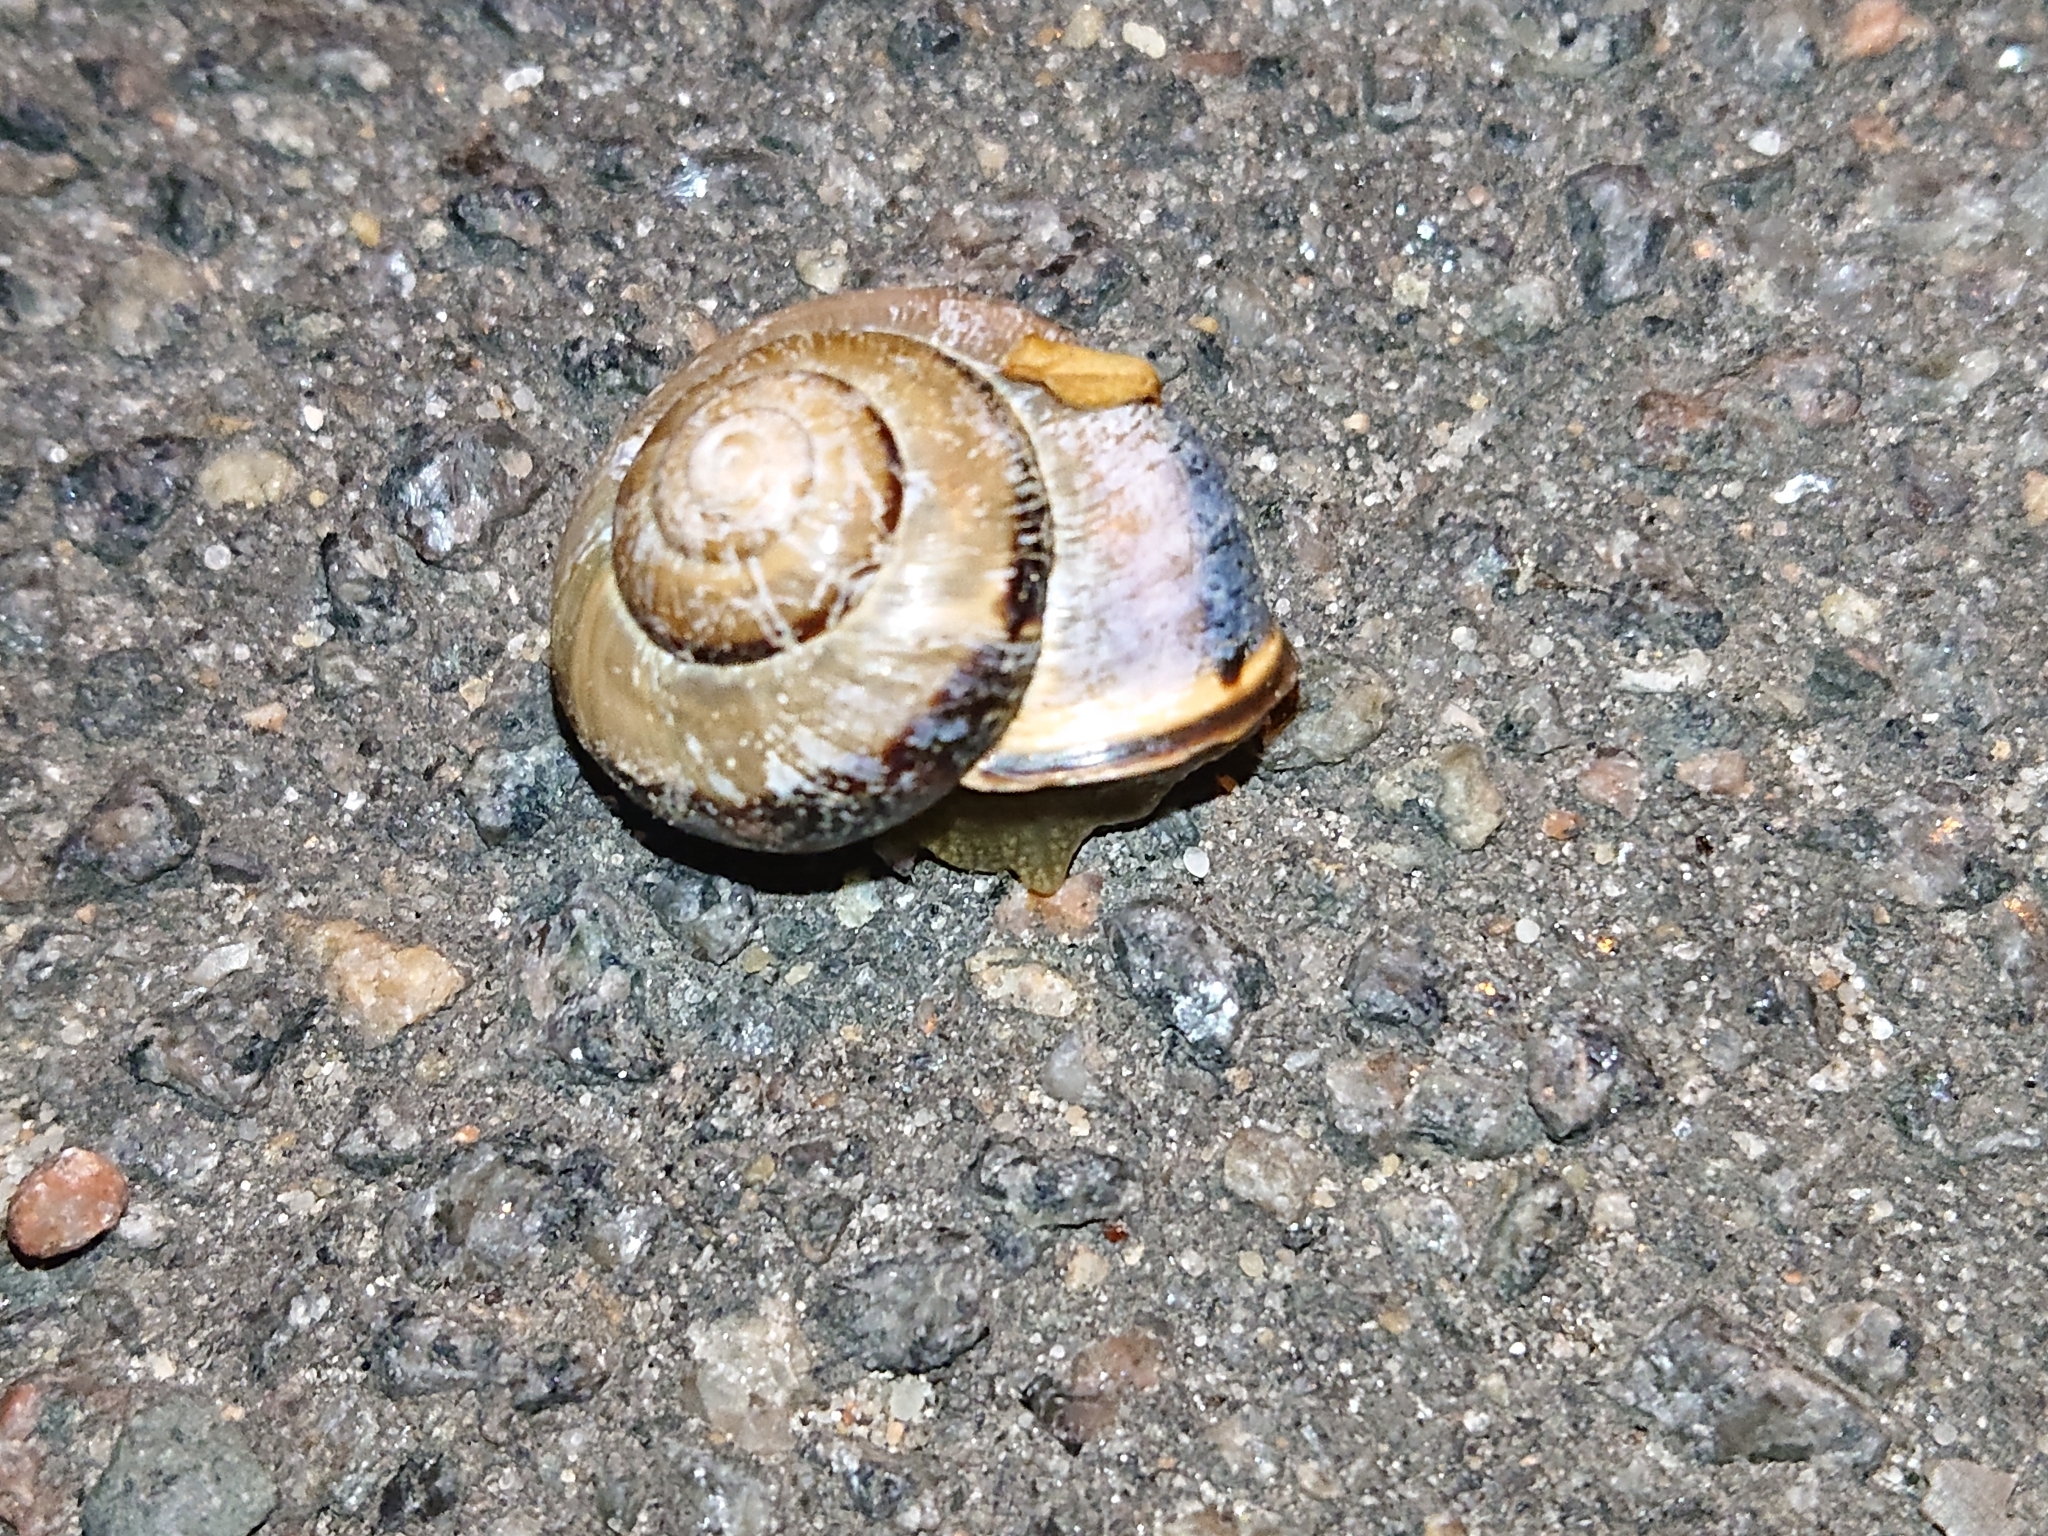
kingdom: Animalia
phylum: Mollusca
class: Gastropoda
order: Stylommatophora
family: Helicidae
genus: Cepaea
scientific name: Cepaea nemoralis
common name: Grovesnail
